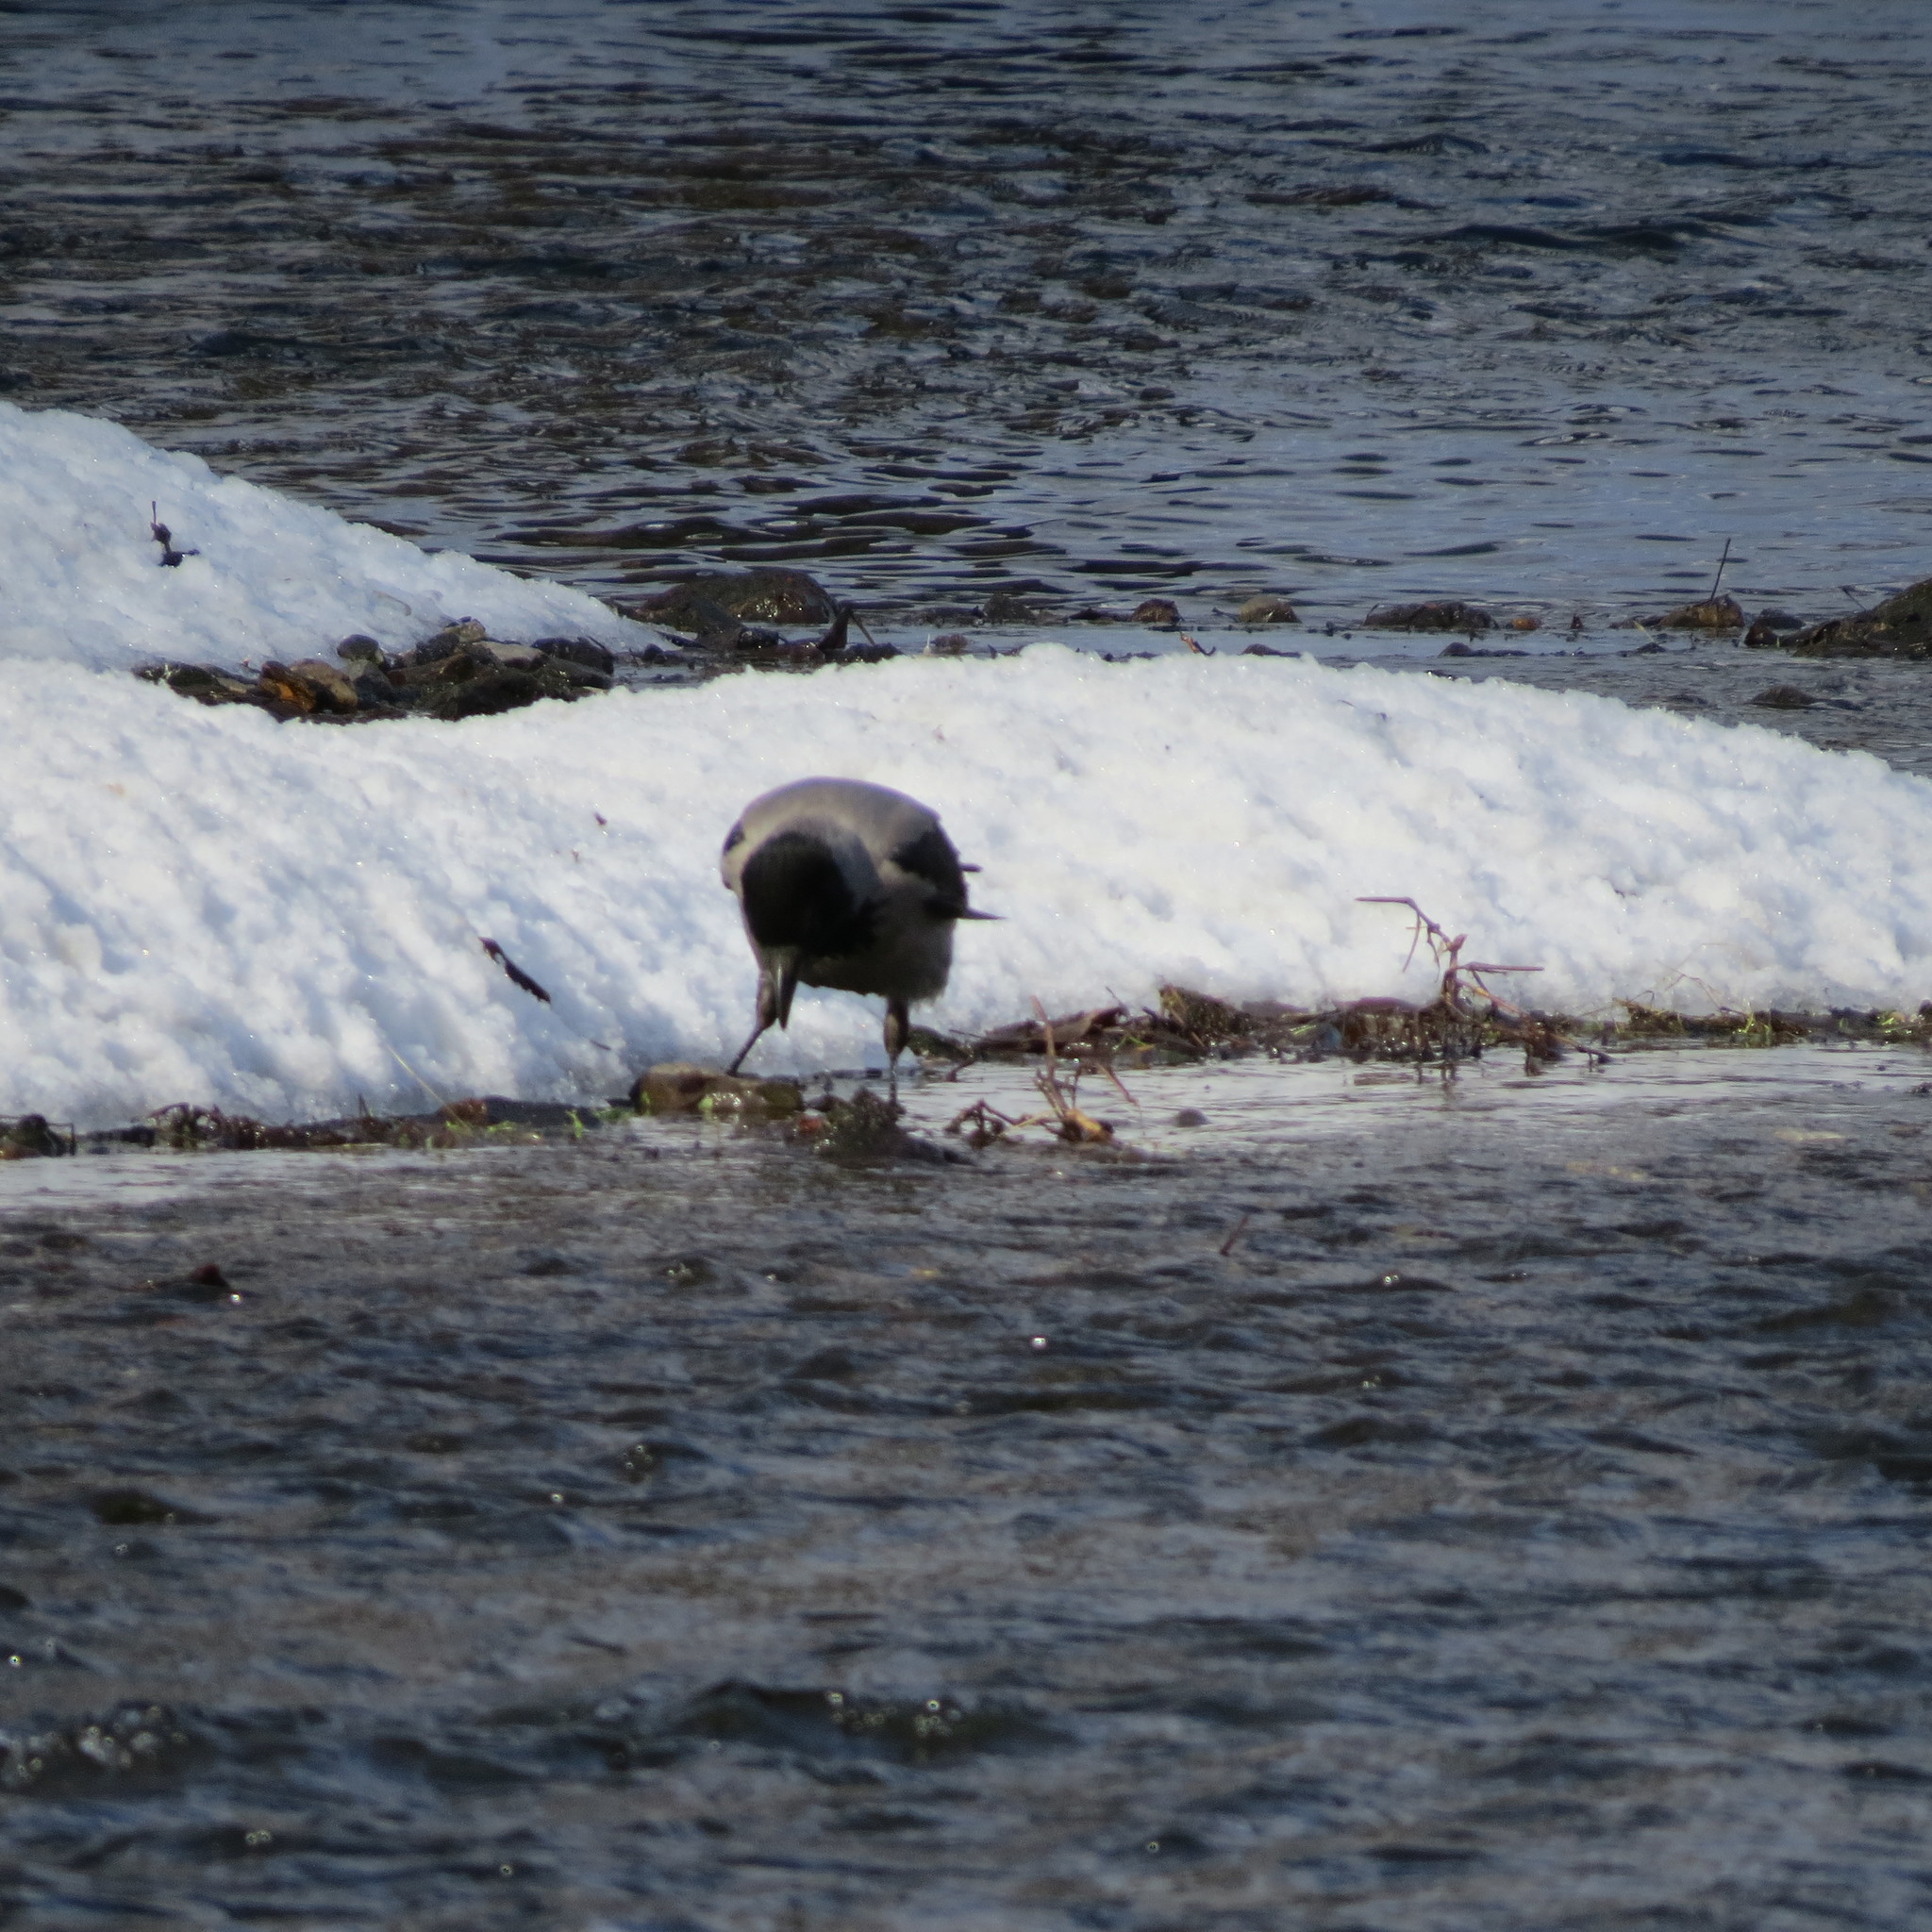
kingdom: Animalia
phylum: Chordata
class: Aves
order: Passeriformes
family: Corvidae
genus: Corvus
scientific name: Corvus cornix
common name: Hooded crow
